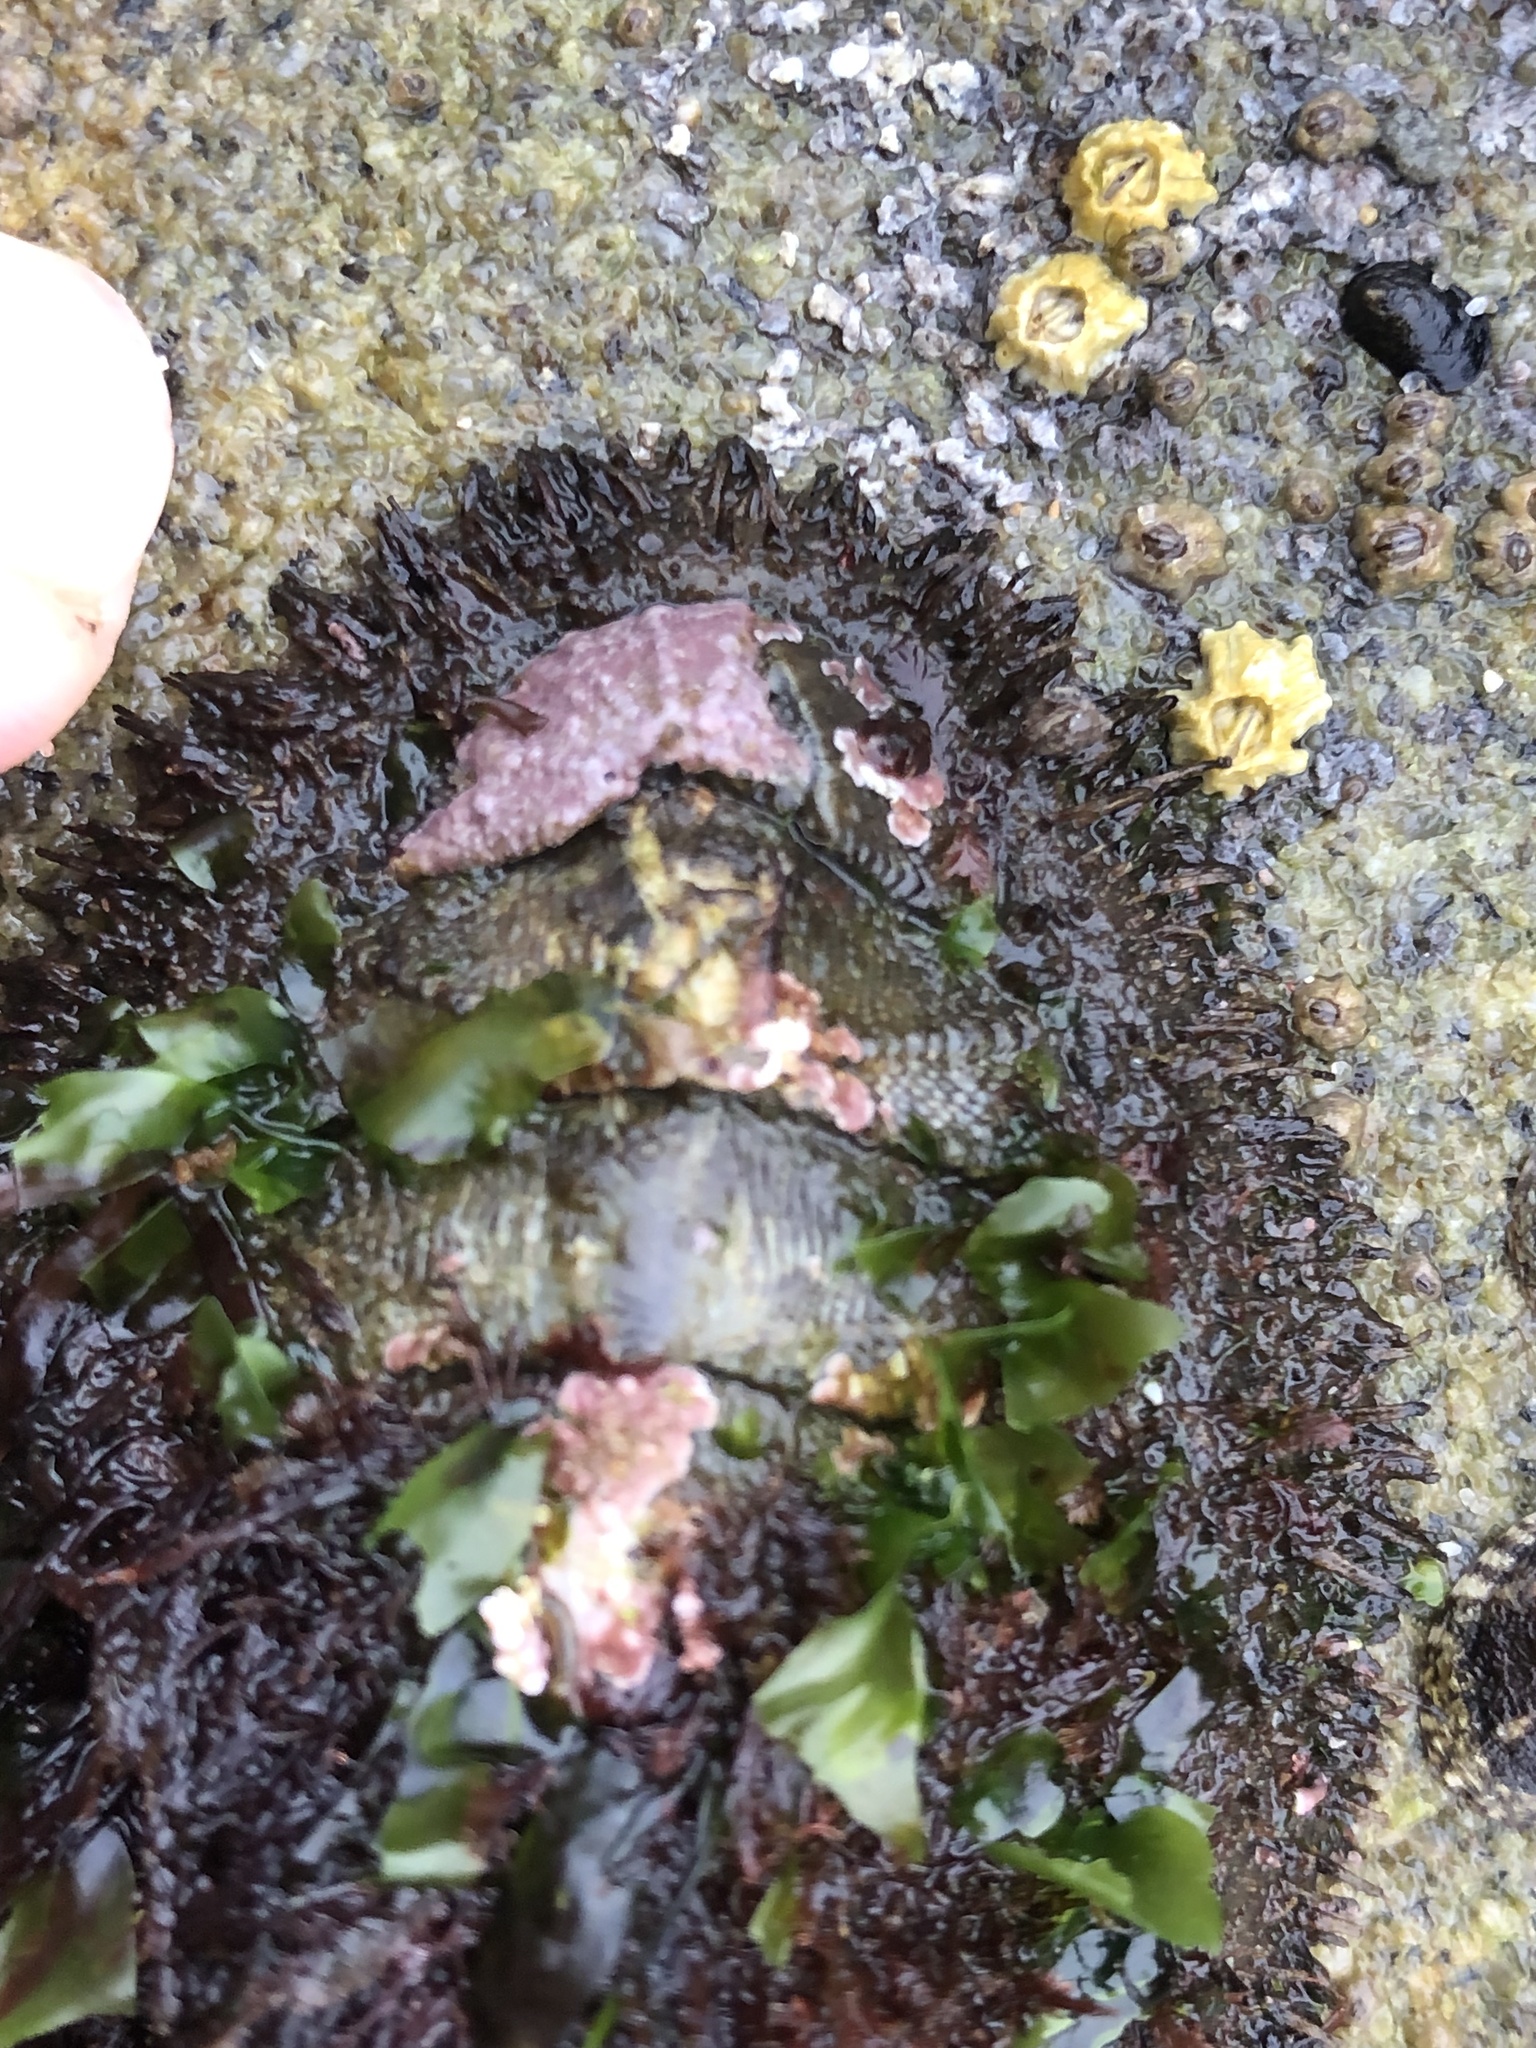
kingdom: Animalia
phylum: Mollusca
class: Polyplacophora
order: Chitonida
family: Mopaliidae
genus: Mopalia
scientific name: Mopalia muscosa
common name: Mossy chiton
